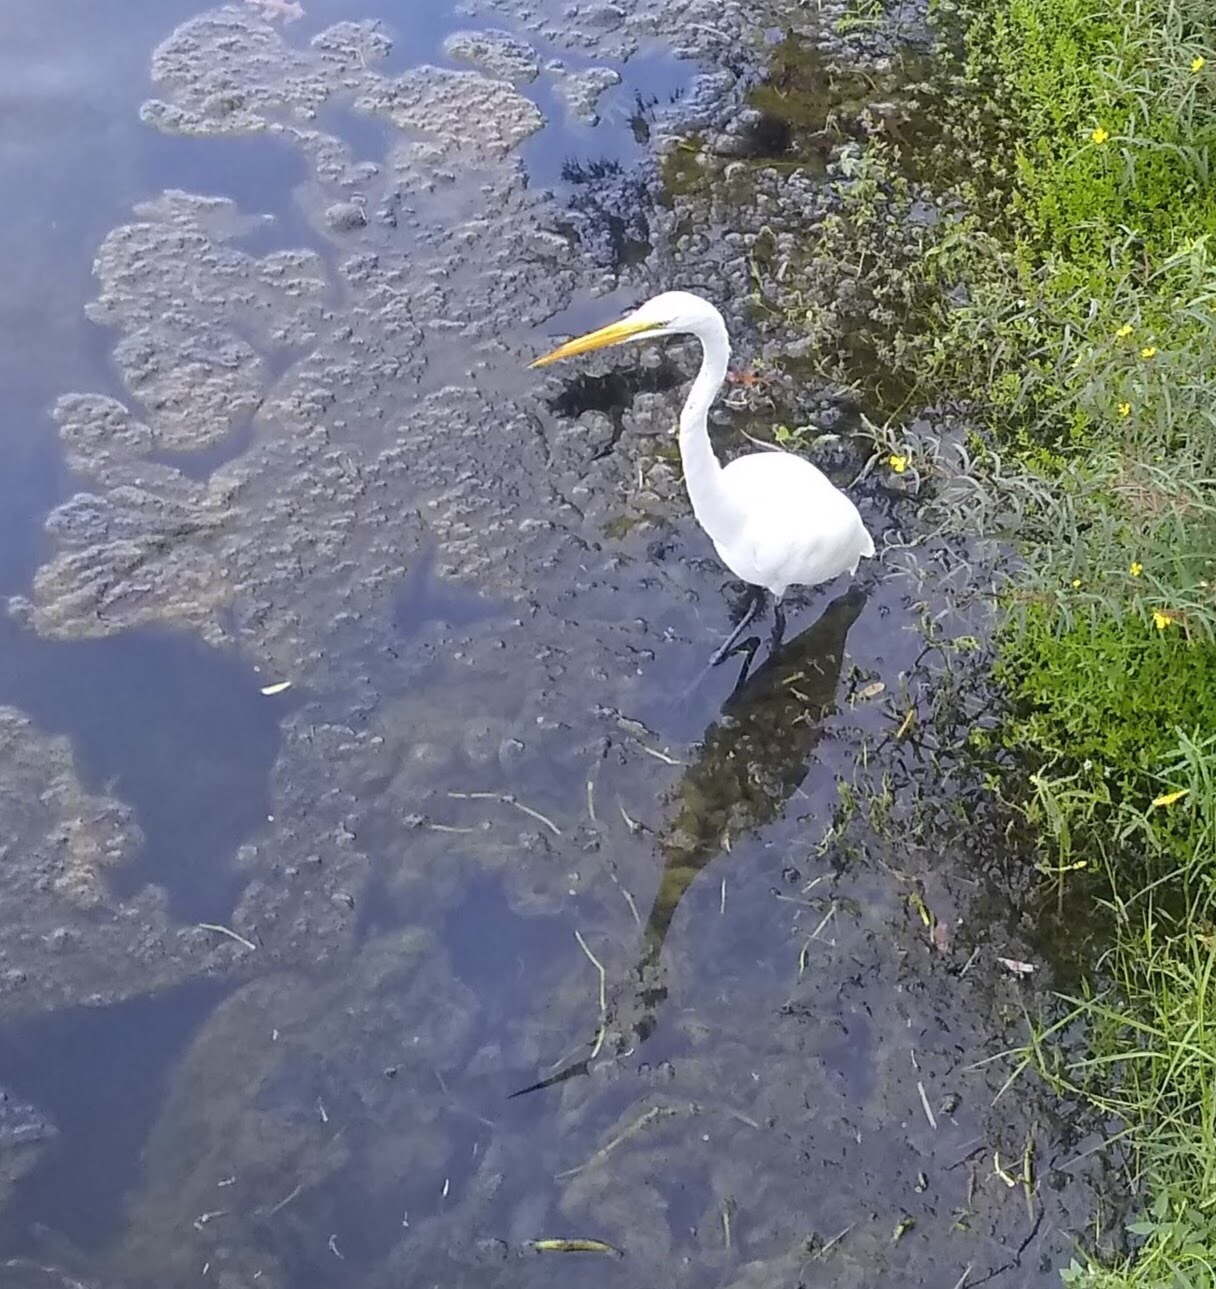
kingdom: Animalia
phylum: Chordata
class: Aves
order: Pelecaniformes
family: Ardeidae
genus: Ardea
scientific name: Ardea alba
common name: Great egret
